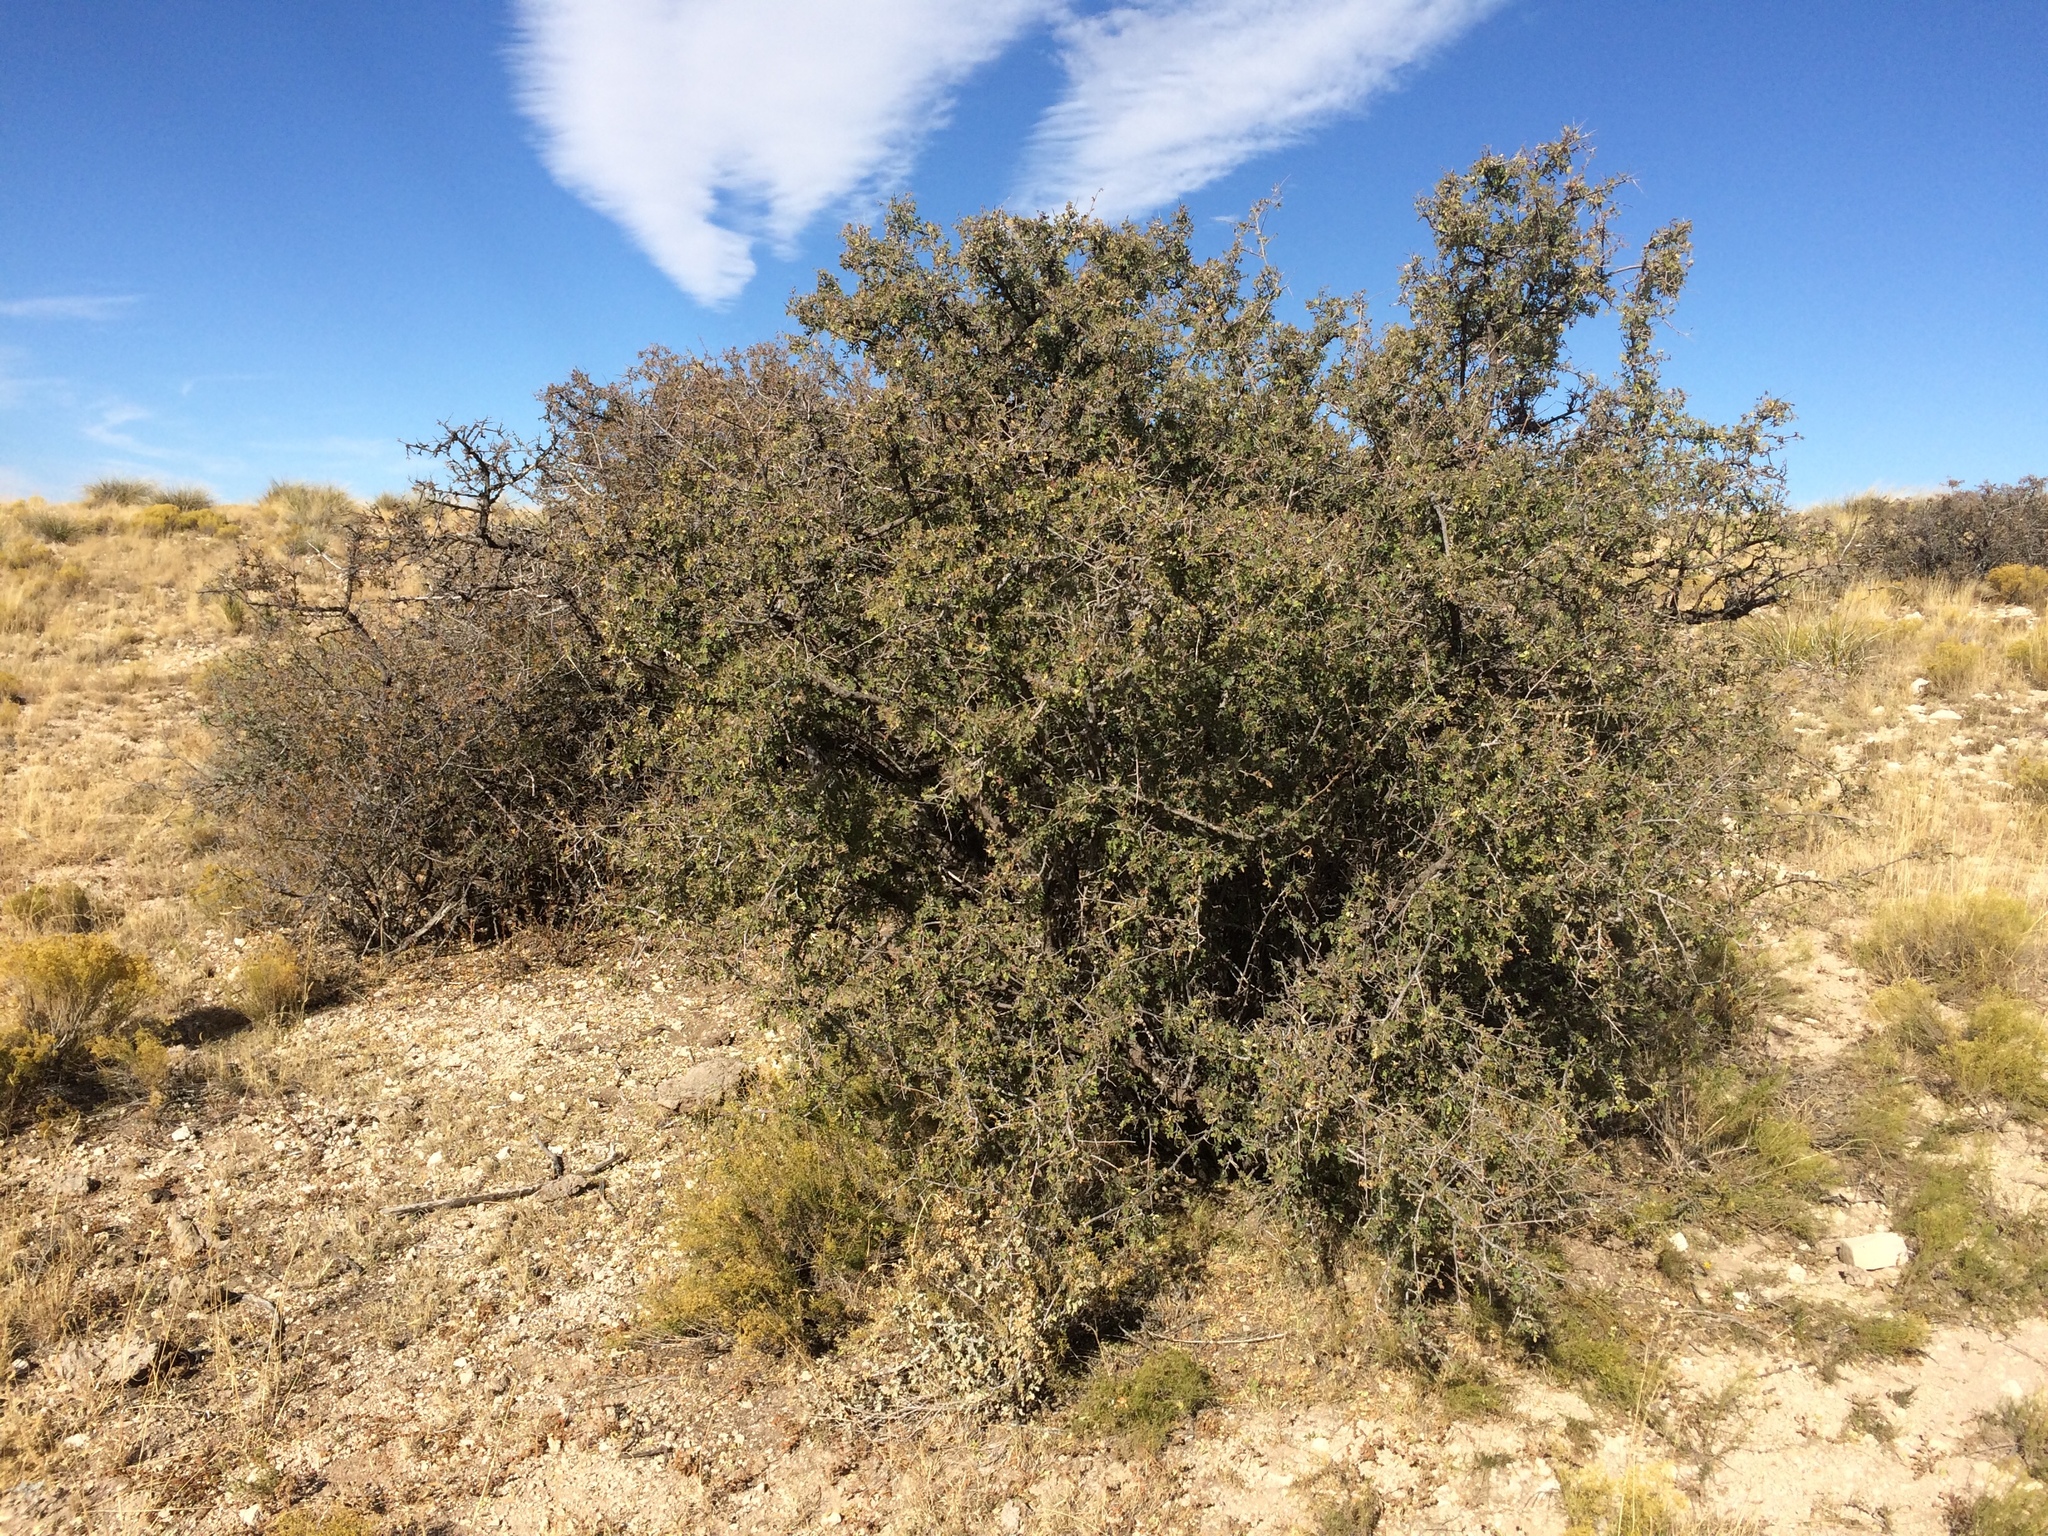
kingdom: Plantae
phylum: Tracheophyta
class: Magnoliopsida
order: Sapindales
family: Anacardiaceae
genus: Rhus
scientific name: Rhus microphylla
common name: Desert sumac
